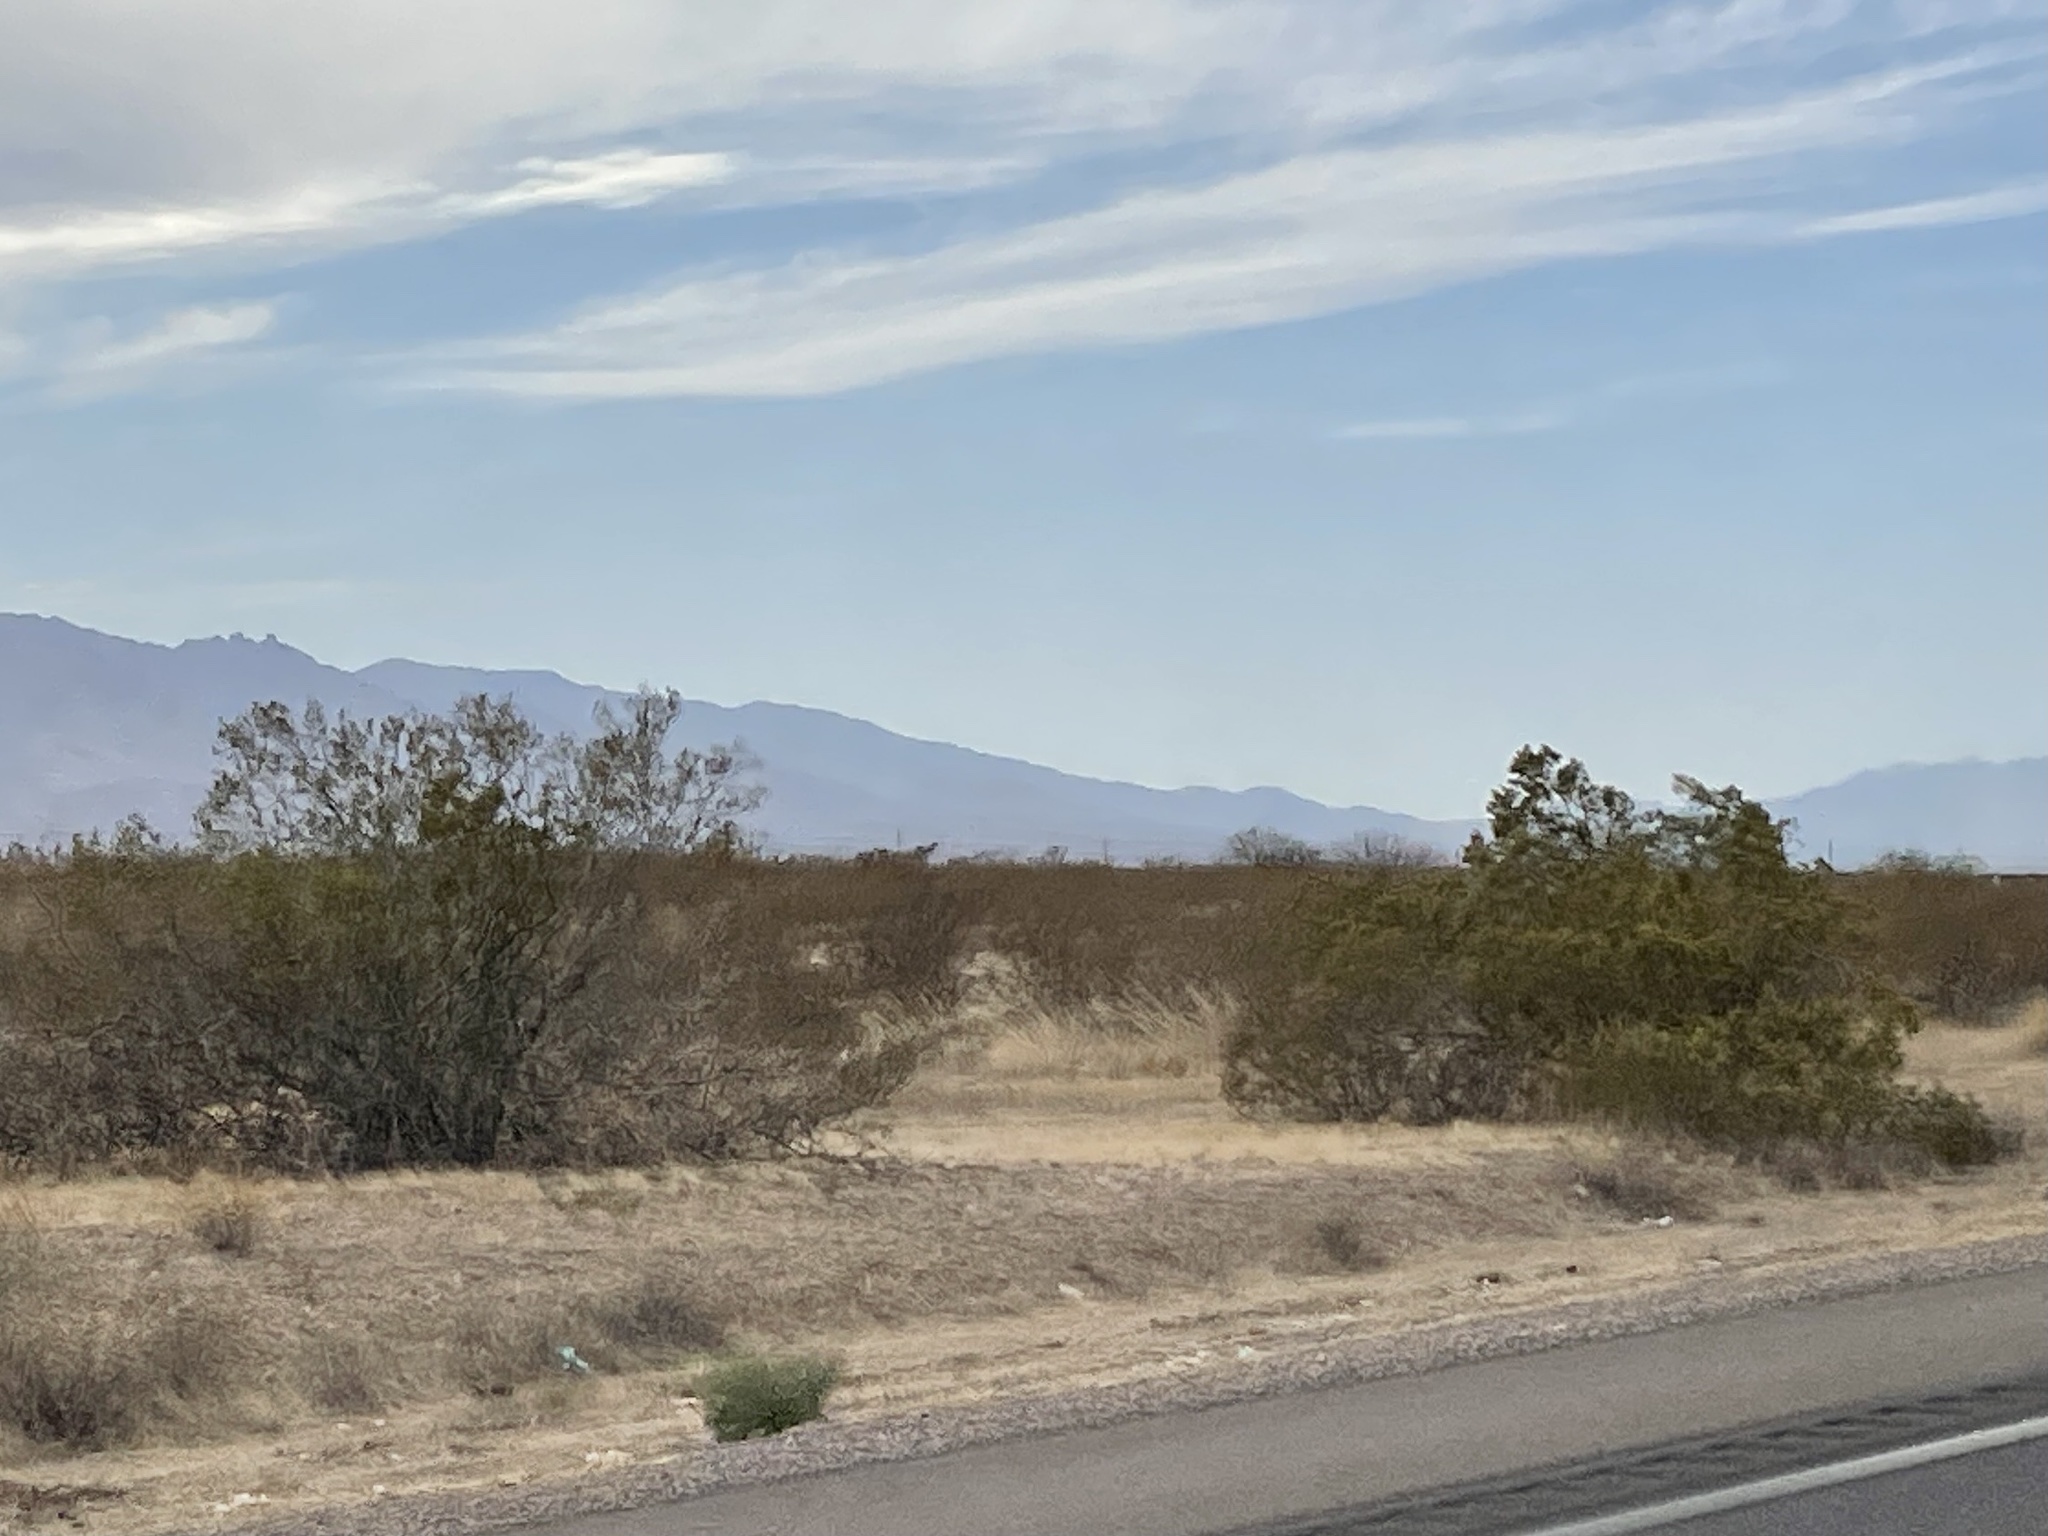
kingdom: Plantae
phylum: Tracheophyta
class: Magnoliopsida
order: Zygophyllales
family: Zygophyllaceae
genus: Larrea
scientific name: Larrea tridentata
